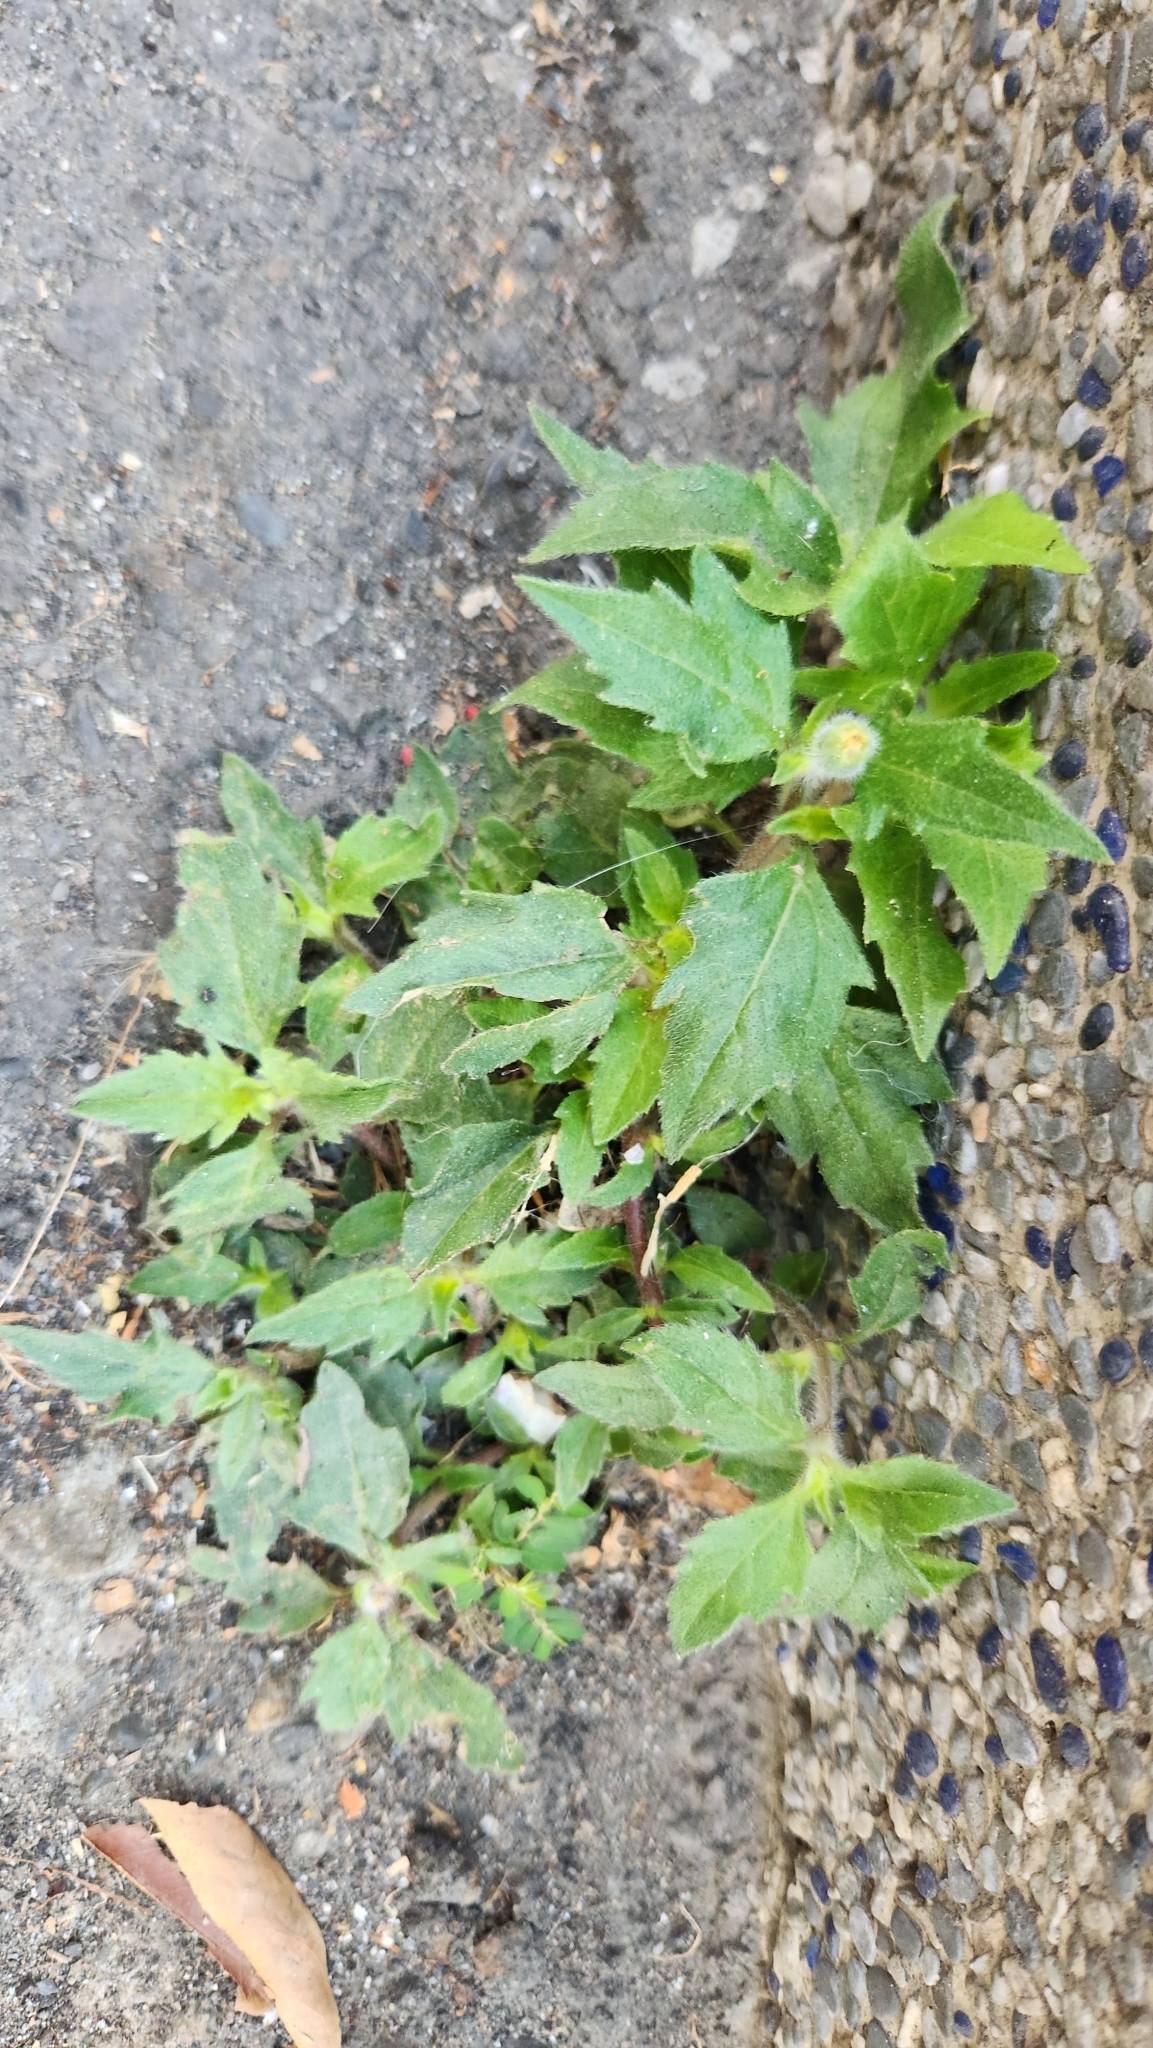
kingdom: Plantae
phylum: Tracheophyta
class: Magnoliopsida
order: Asterales
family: Asteraceae
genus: Tridax
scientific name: Tridax procumbens
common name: Coatbuttons
